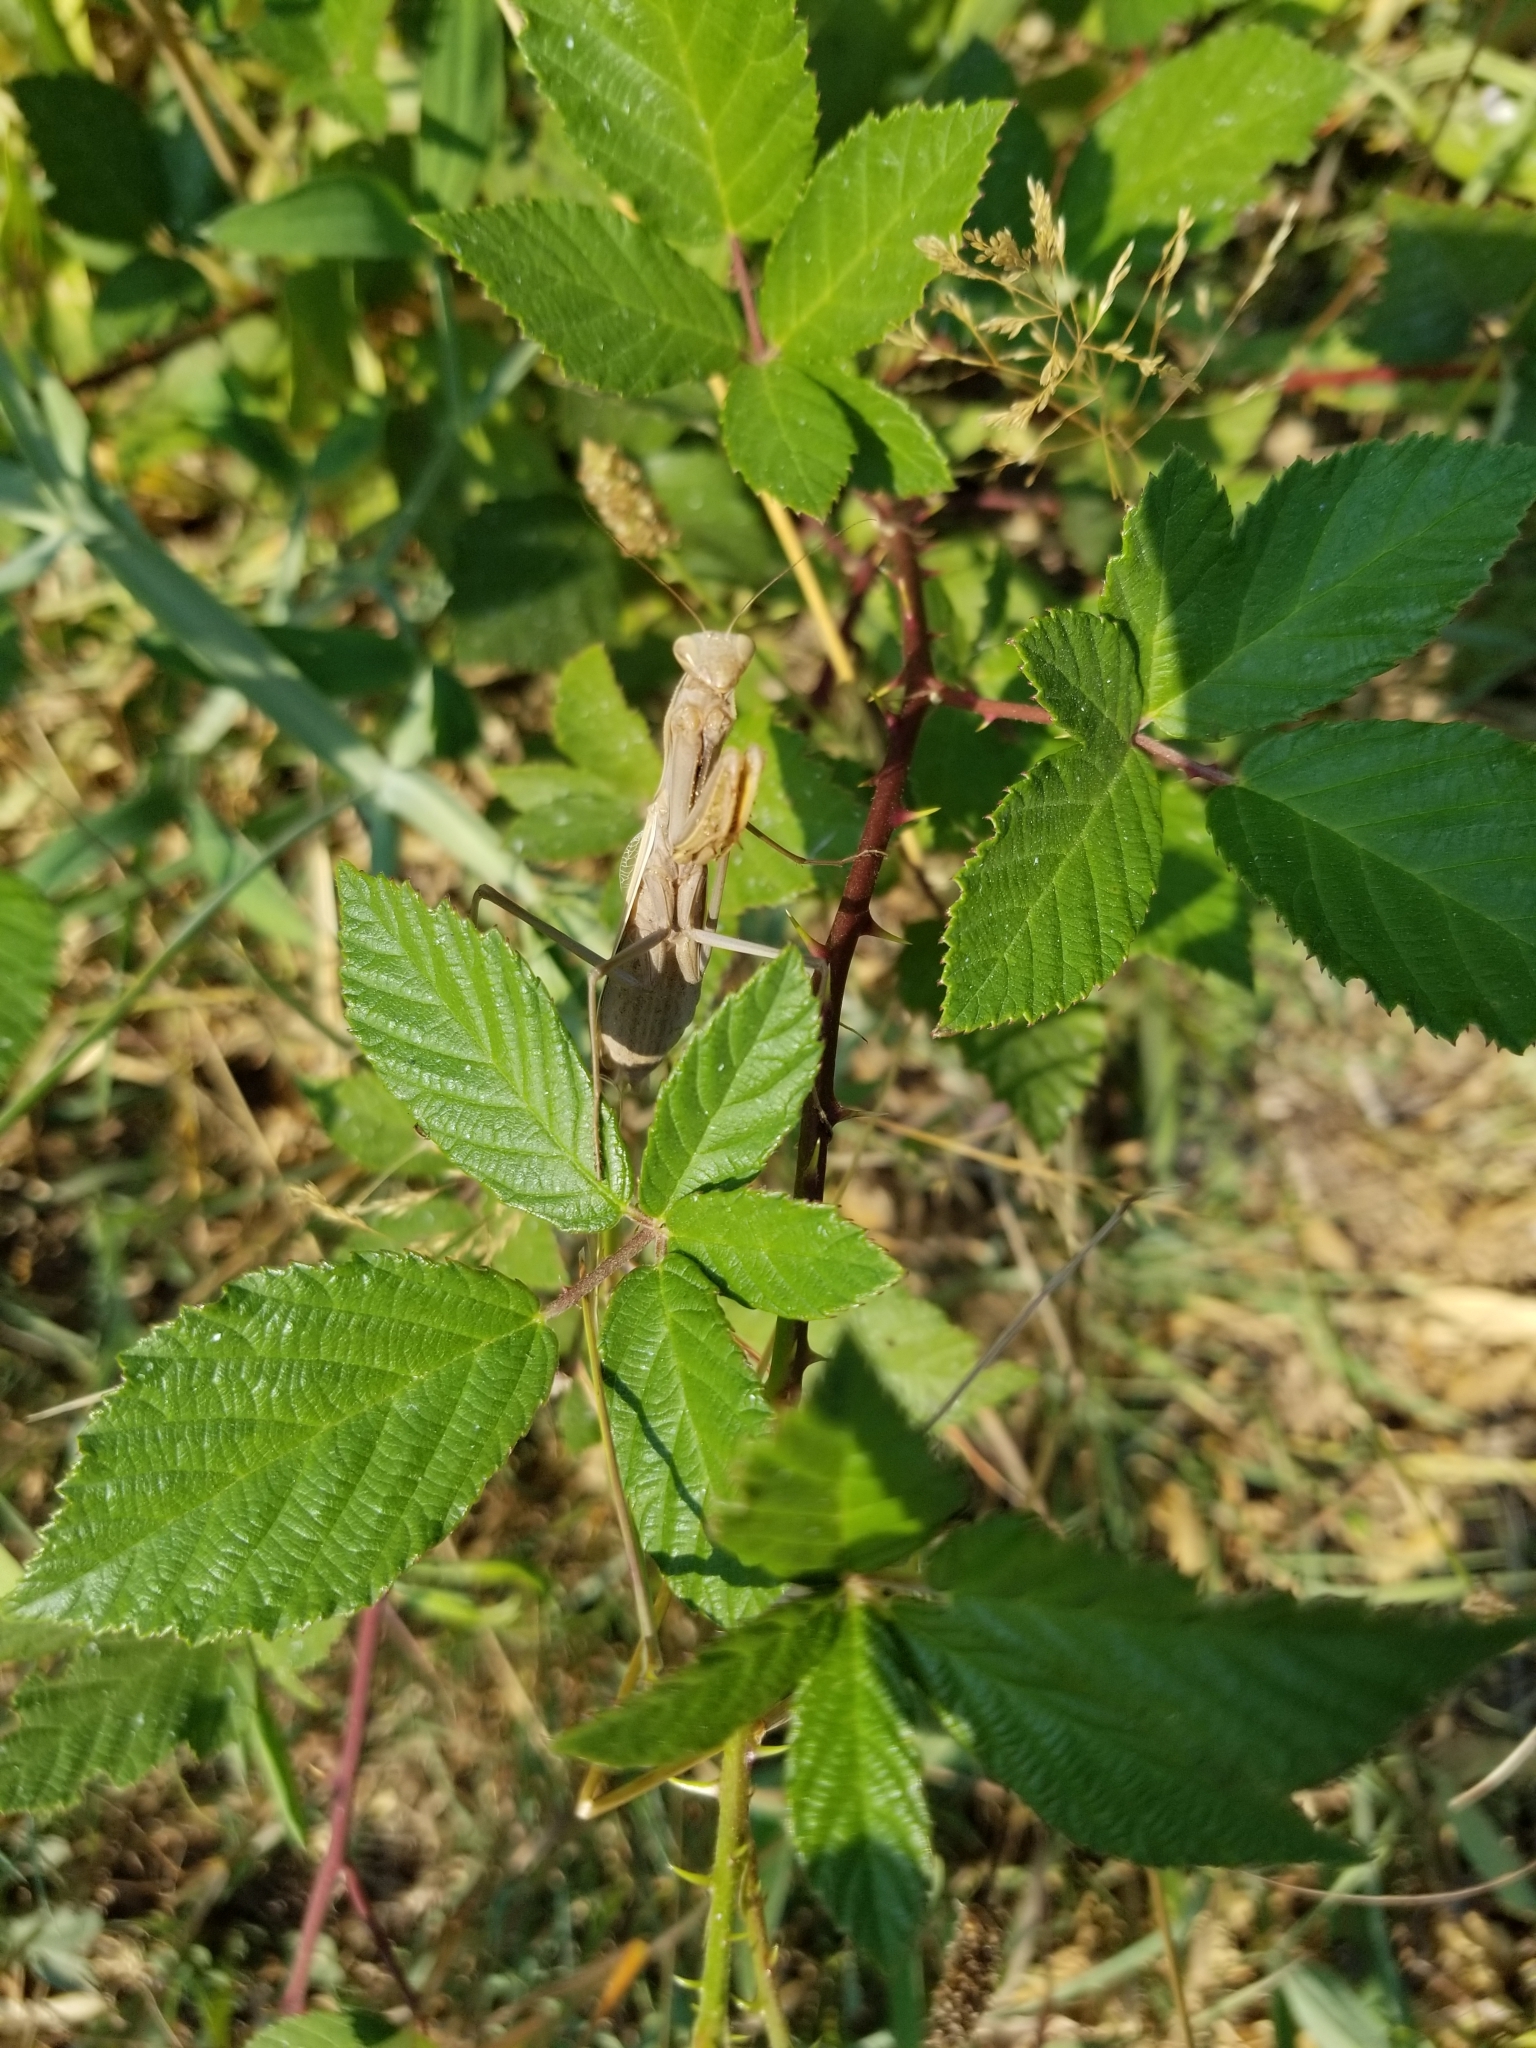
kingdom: Animalia
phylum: Arthropoda
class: Insecta
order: Mantodea
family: Mantidae
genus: Mantis
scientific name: Mantis religiosa
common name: Praying mantis
